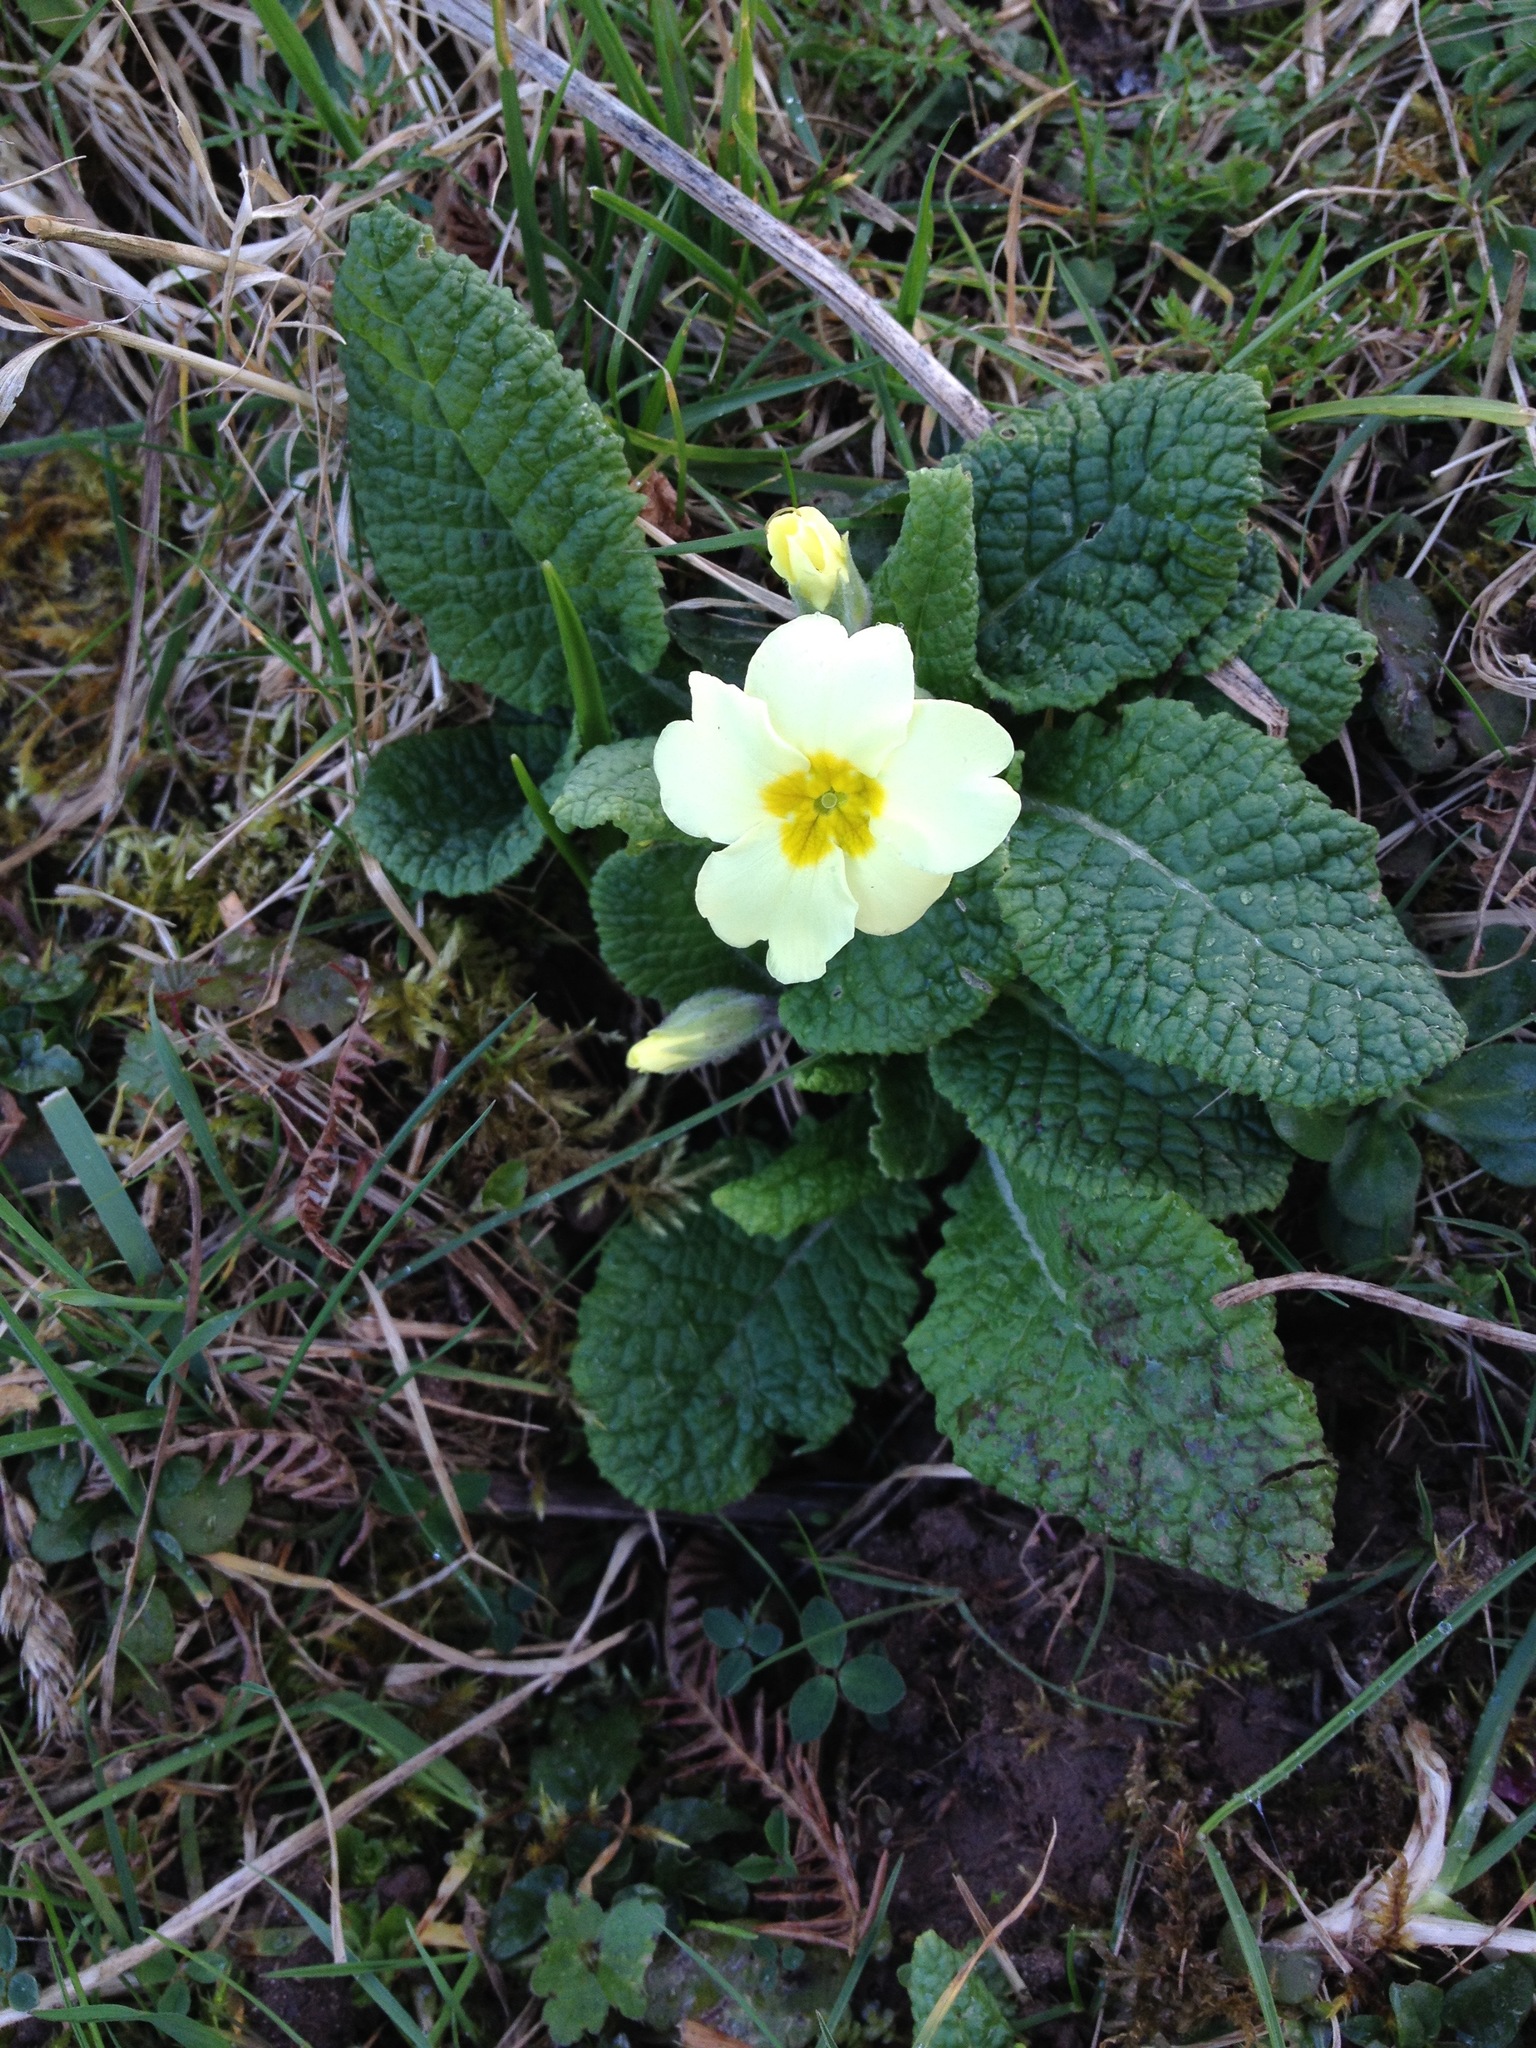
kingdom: Plantae
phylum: Tracheophyta
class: Magnoliopsida
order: Ericales
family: Primulaceae
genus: Primula
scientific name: Primula vulgaris
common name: Primrose
